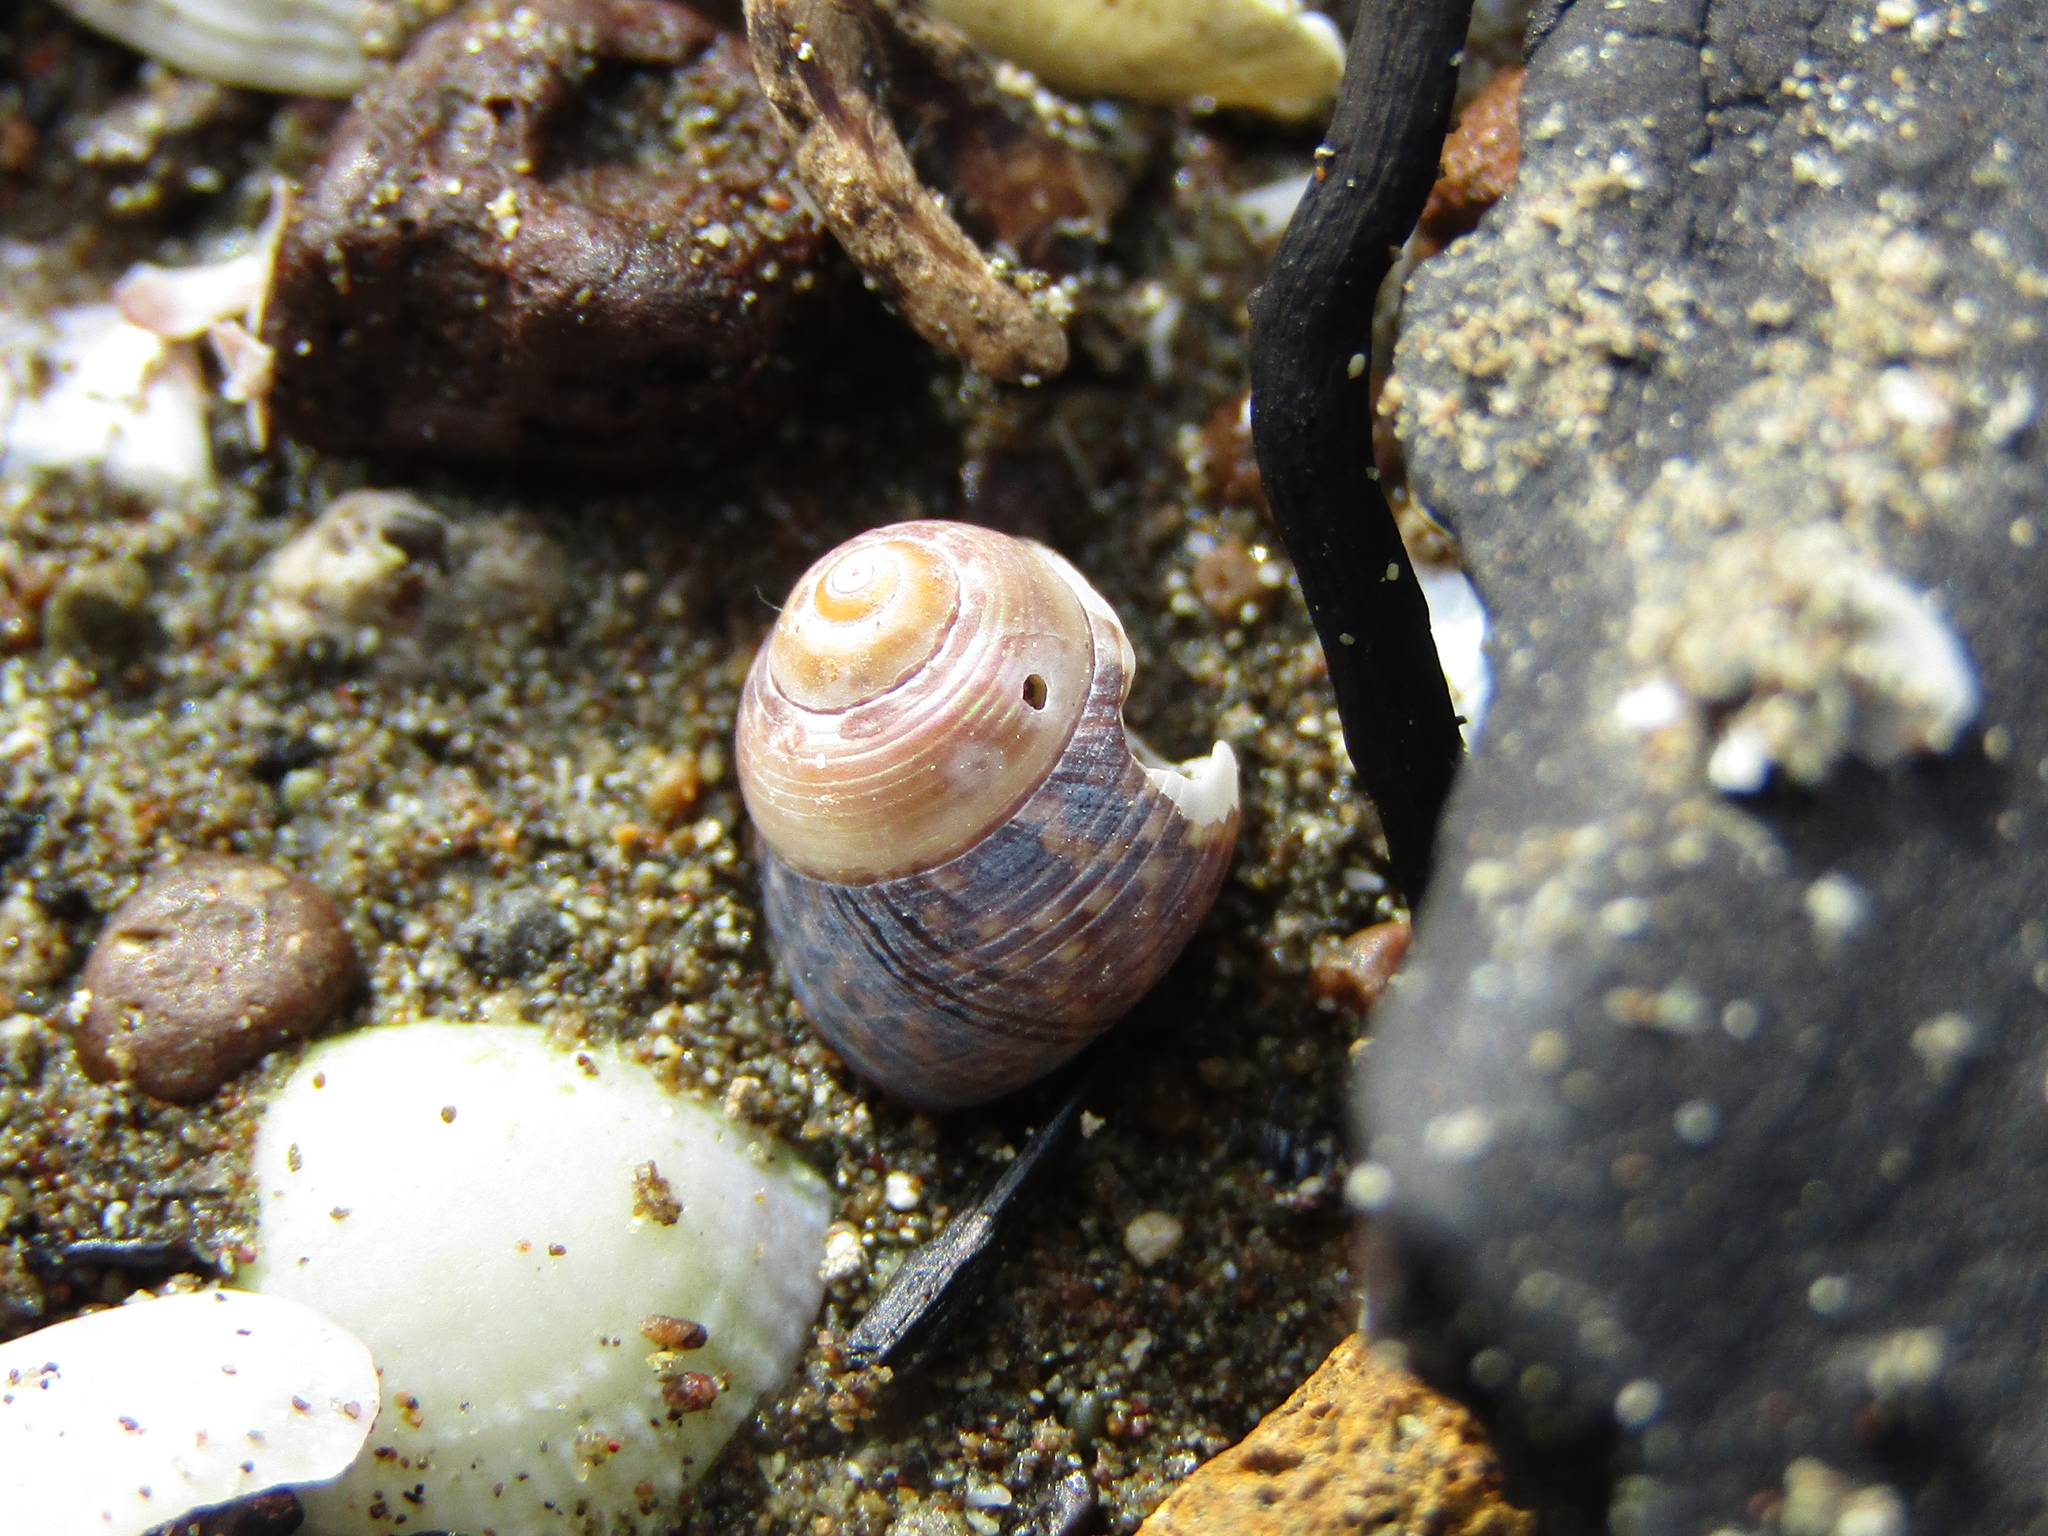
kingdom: Animalia
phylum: Mollusca
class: Gastropoda
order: Trochida
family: Trochidae
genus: Micrelenchus
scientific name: Micrelenchus tessellatus
